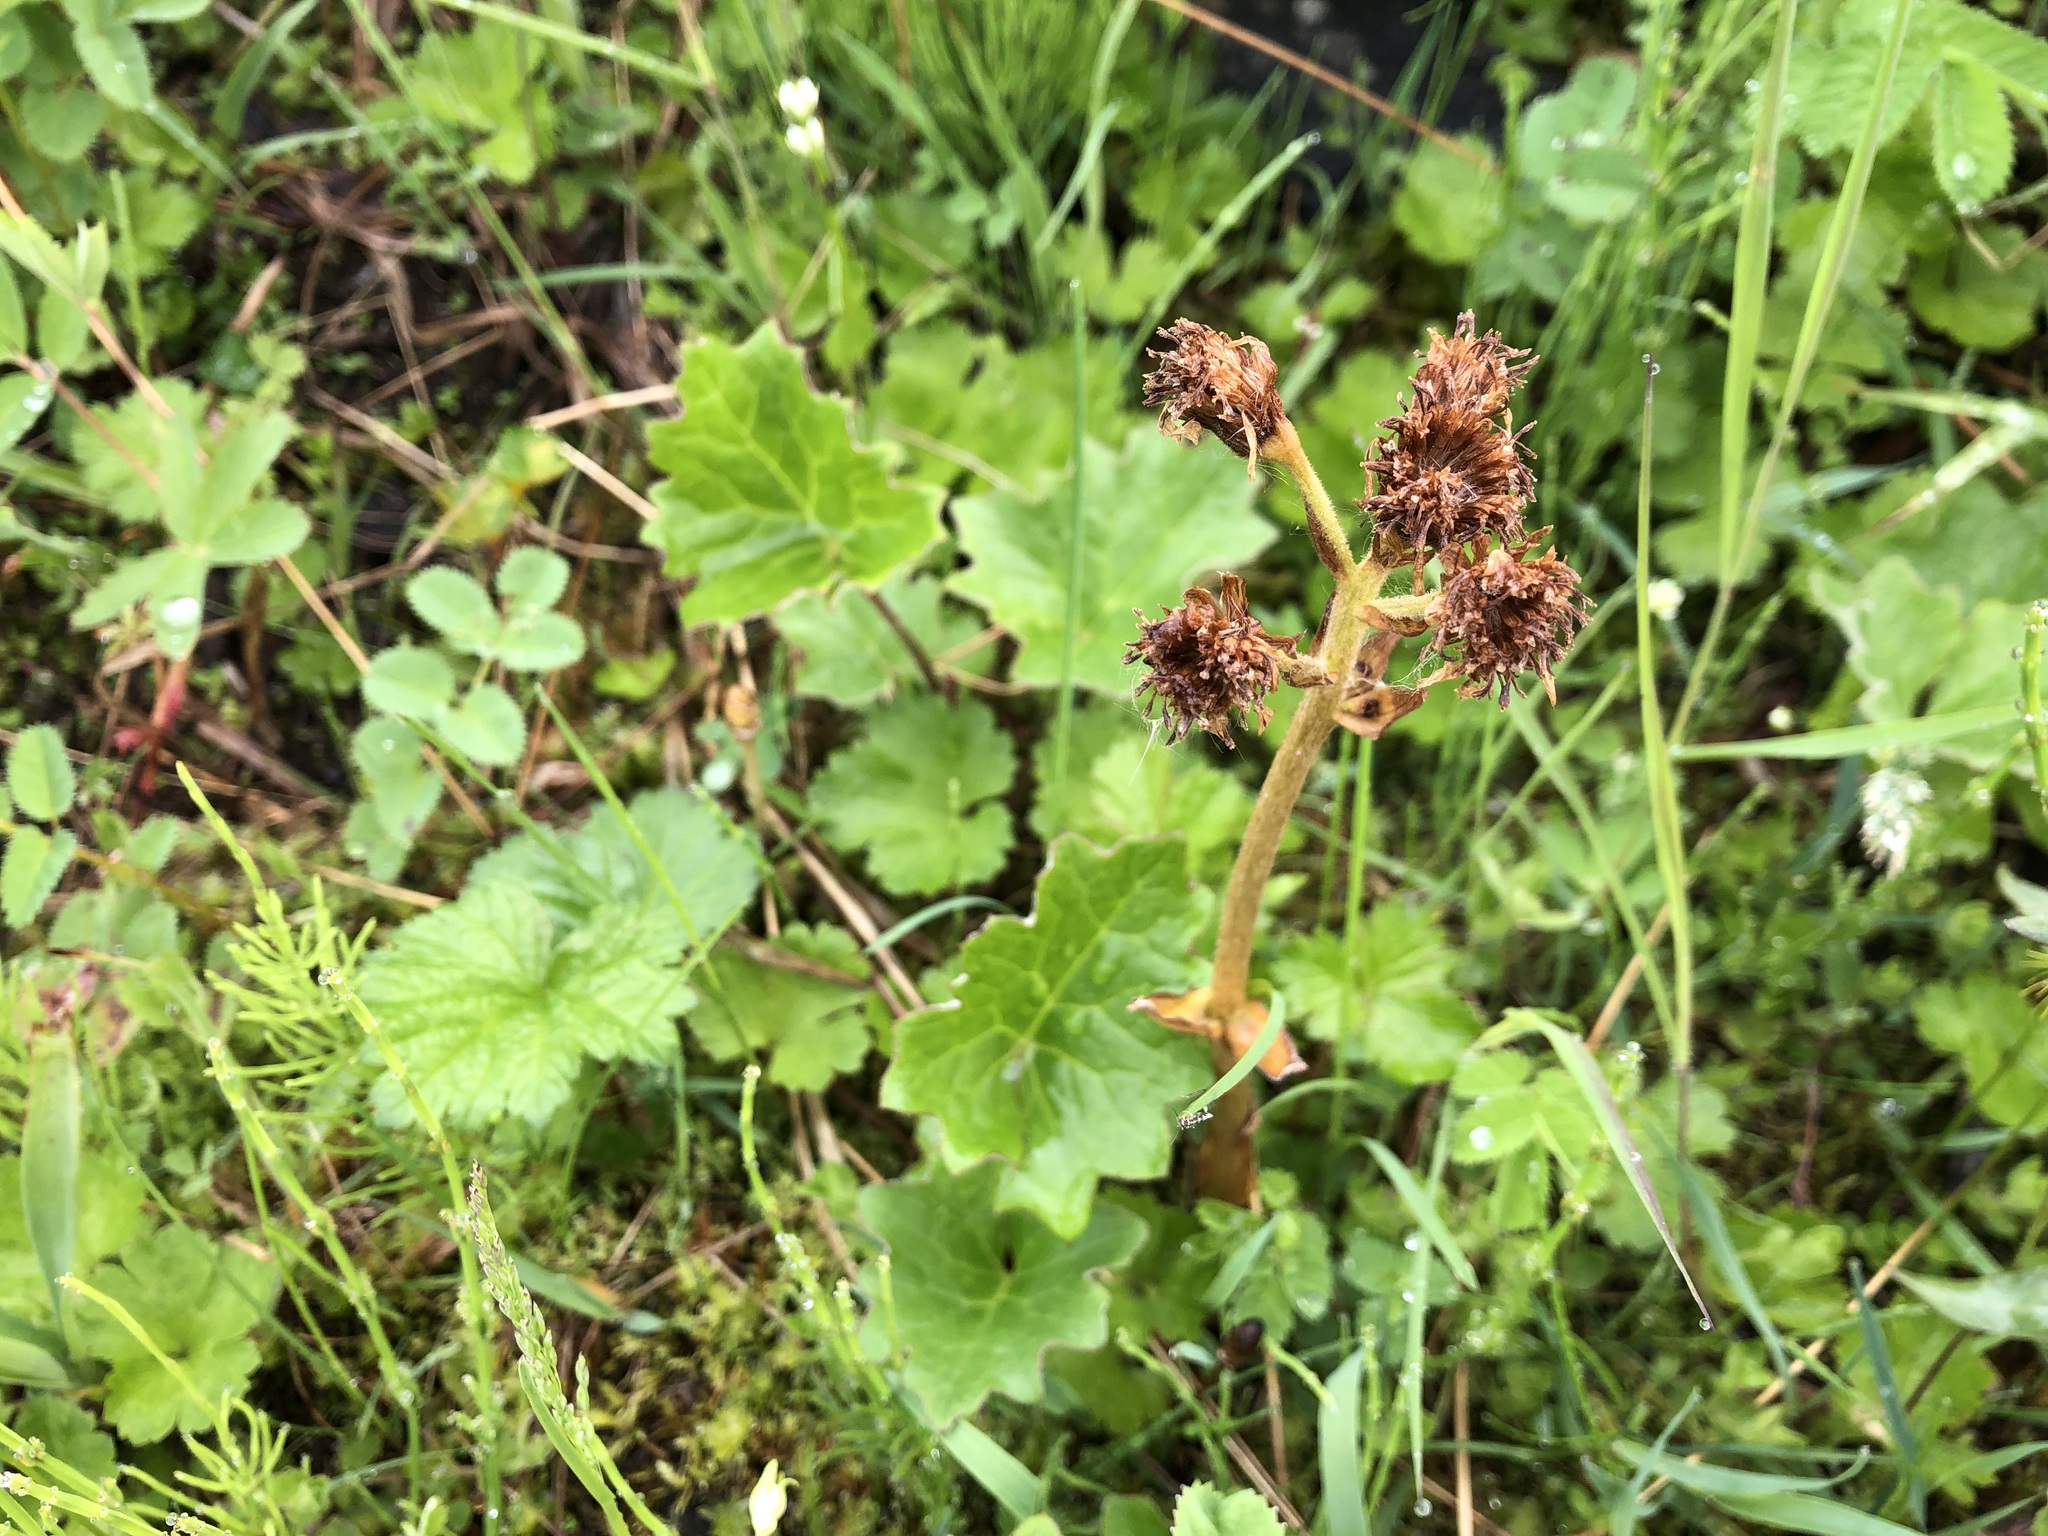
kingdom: Plantae
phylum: Tracheophyta
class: Magnoliopsida
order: Asterales
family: Asteraceae
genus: Petasites
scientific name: Petasites frigidus
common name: Arctic butterbur
